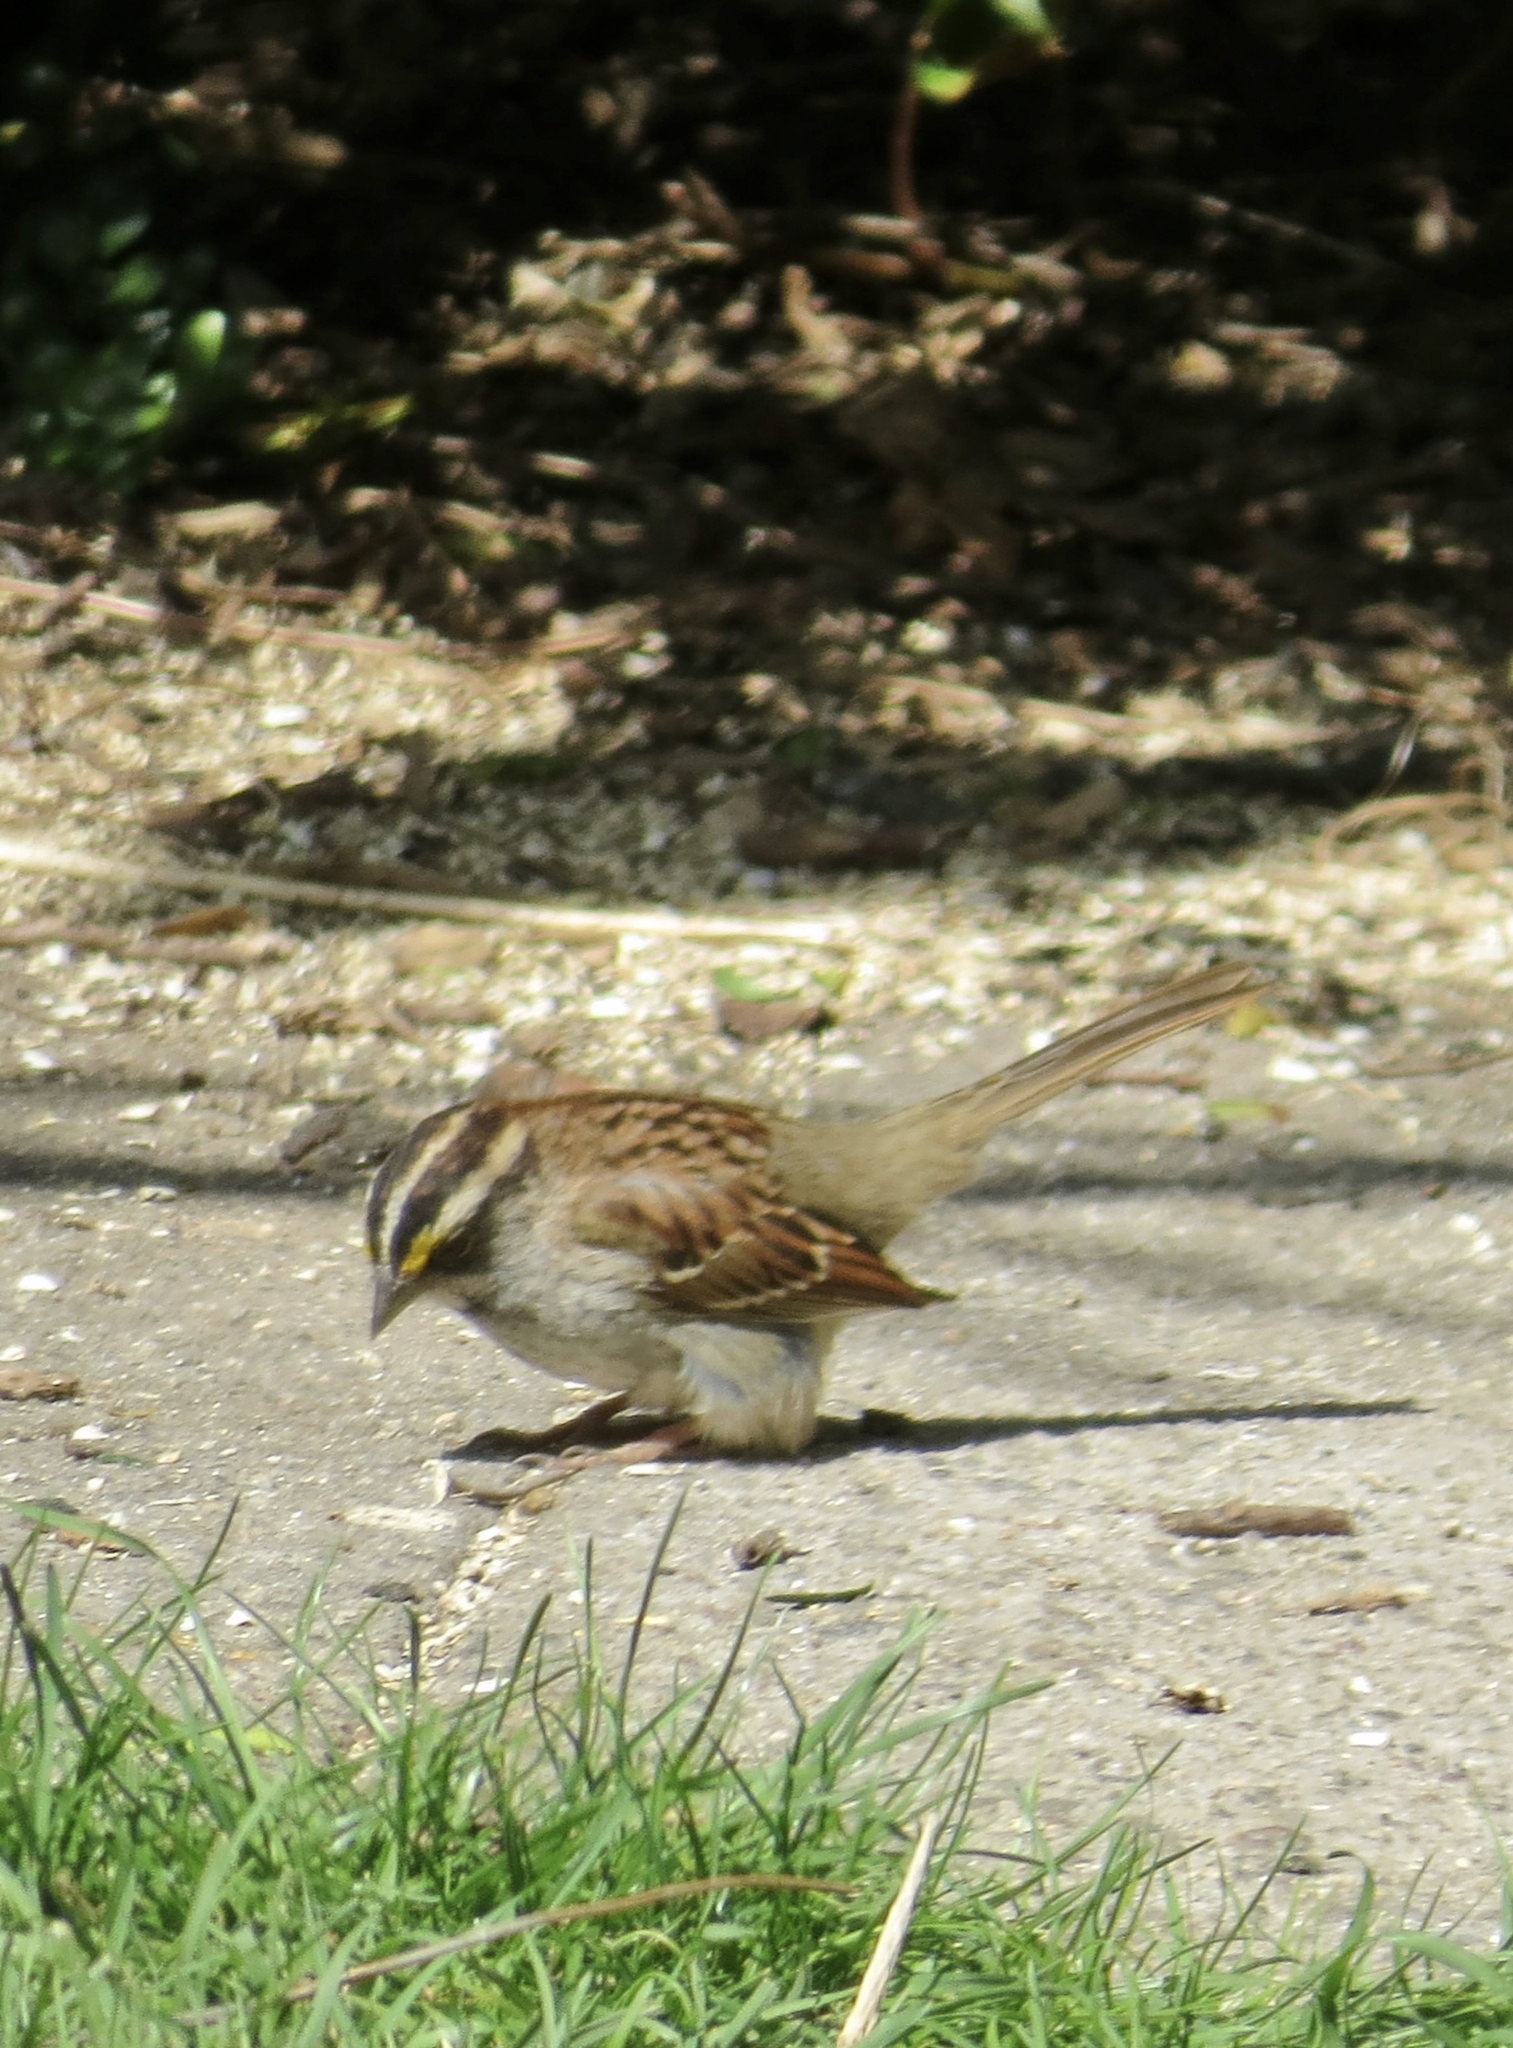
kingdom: Animalia
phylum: Chordata
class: Aves
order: Passeriformes
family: Passerellidae
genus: Zonotrichia
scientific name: Zonotrichia albicollis
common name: White-throated sparrow
